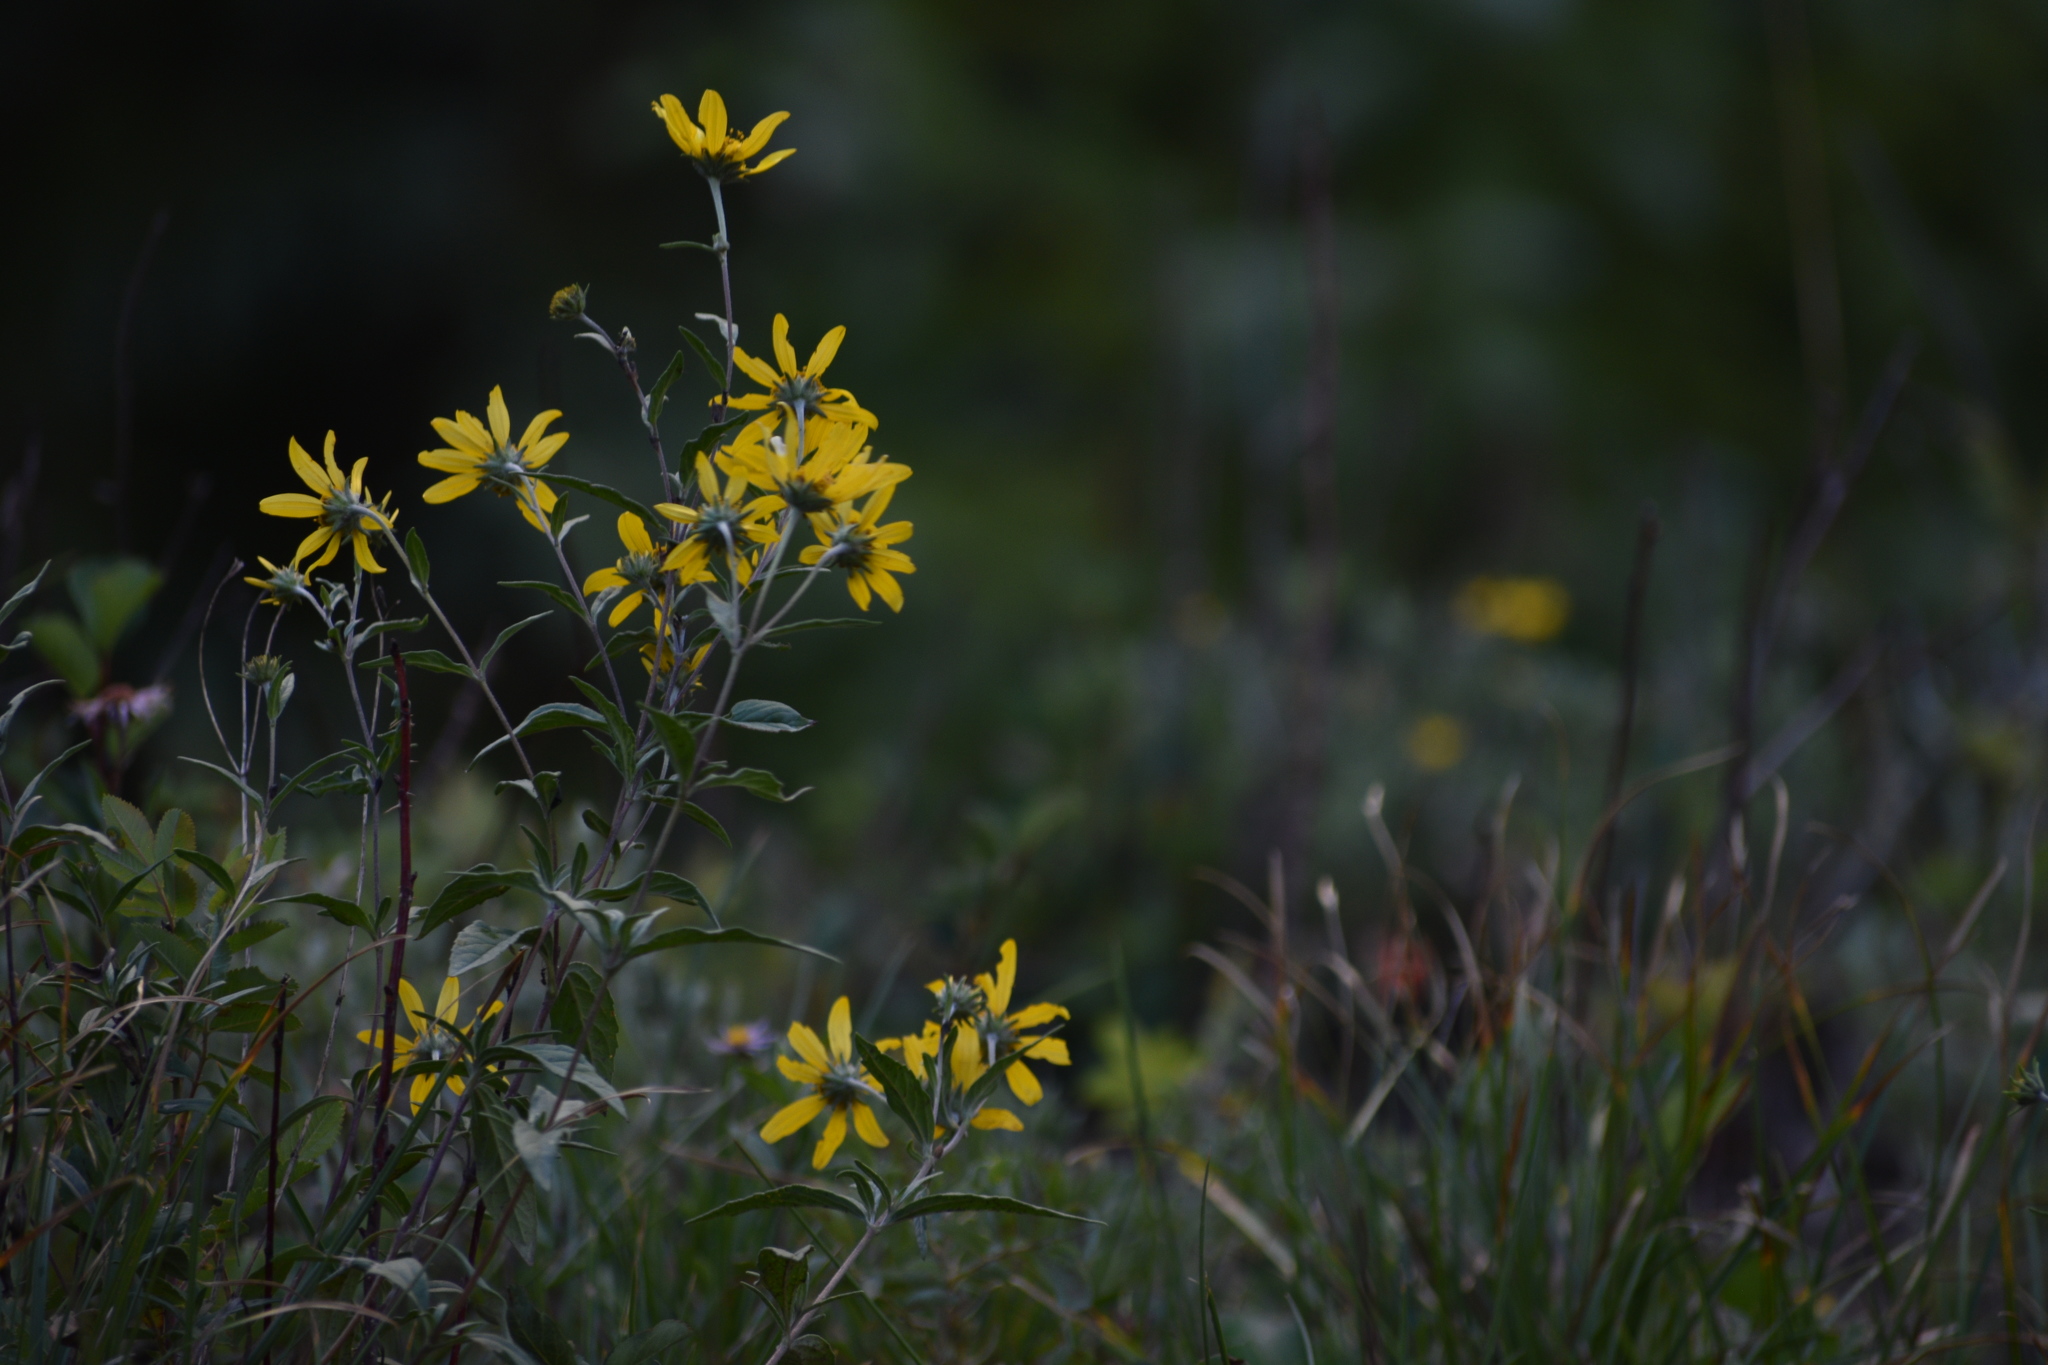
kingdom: Plantae
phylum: Tracheophyta
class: Magnoliopsida
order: Asterales
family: Asteraceae
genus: Heliomeris
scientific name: Heliomeris multiflora
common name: Showy goldeneye
